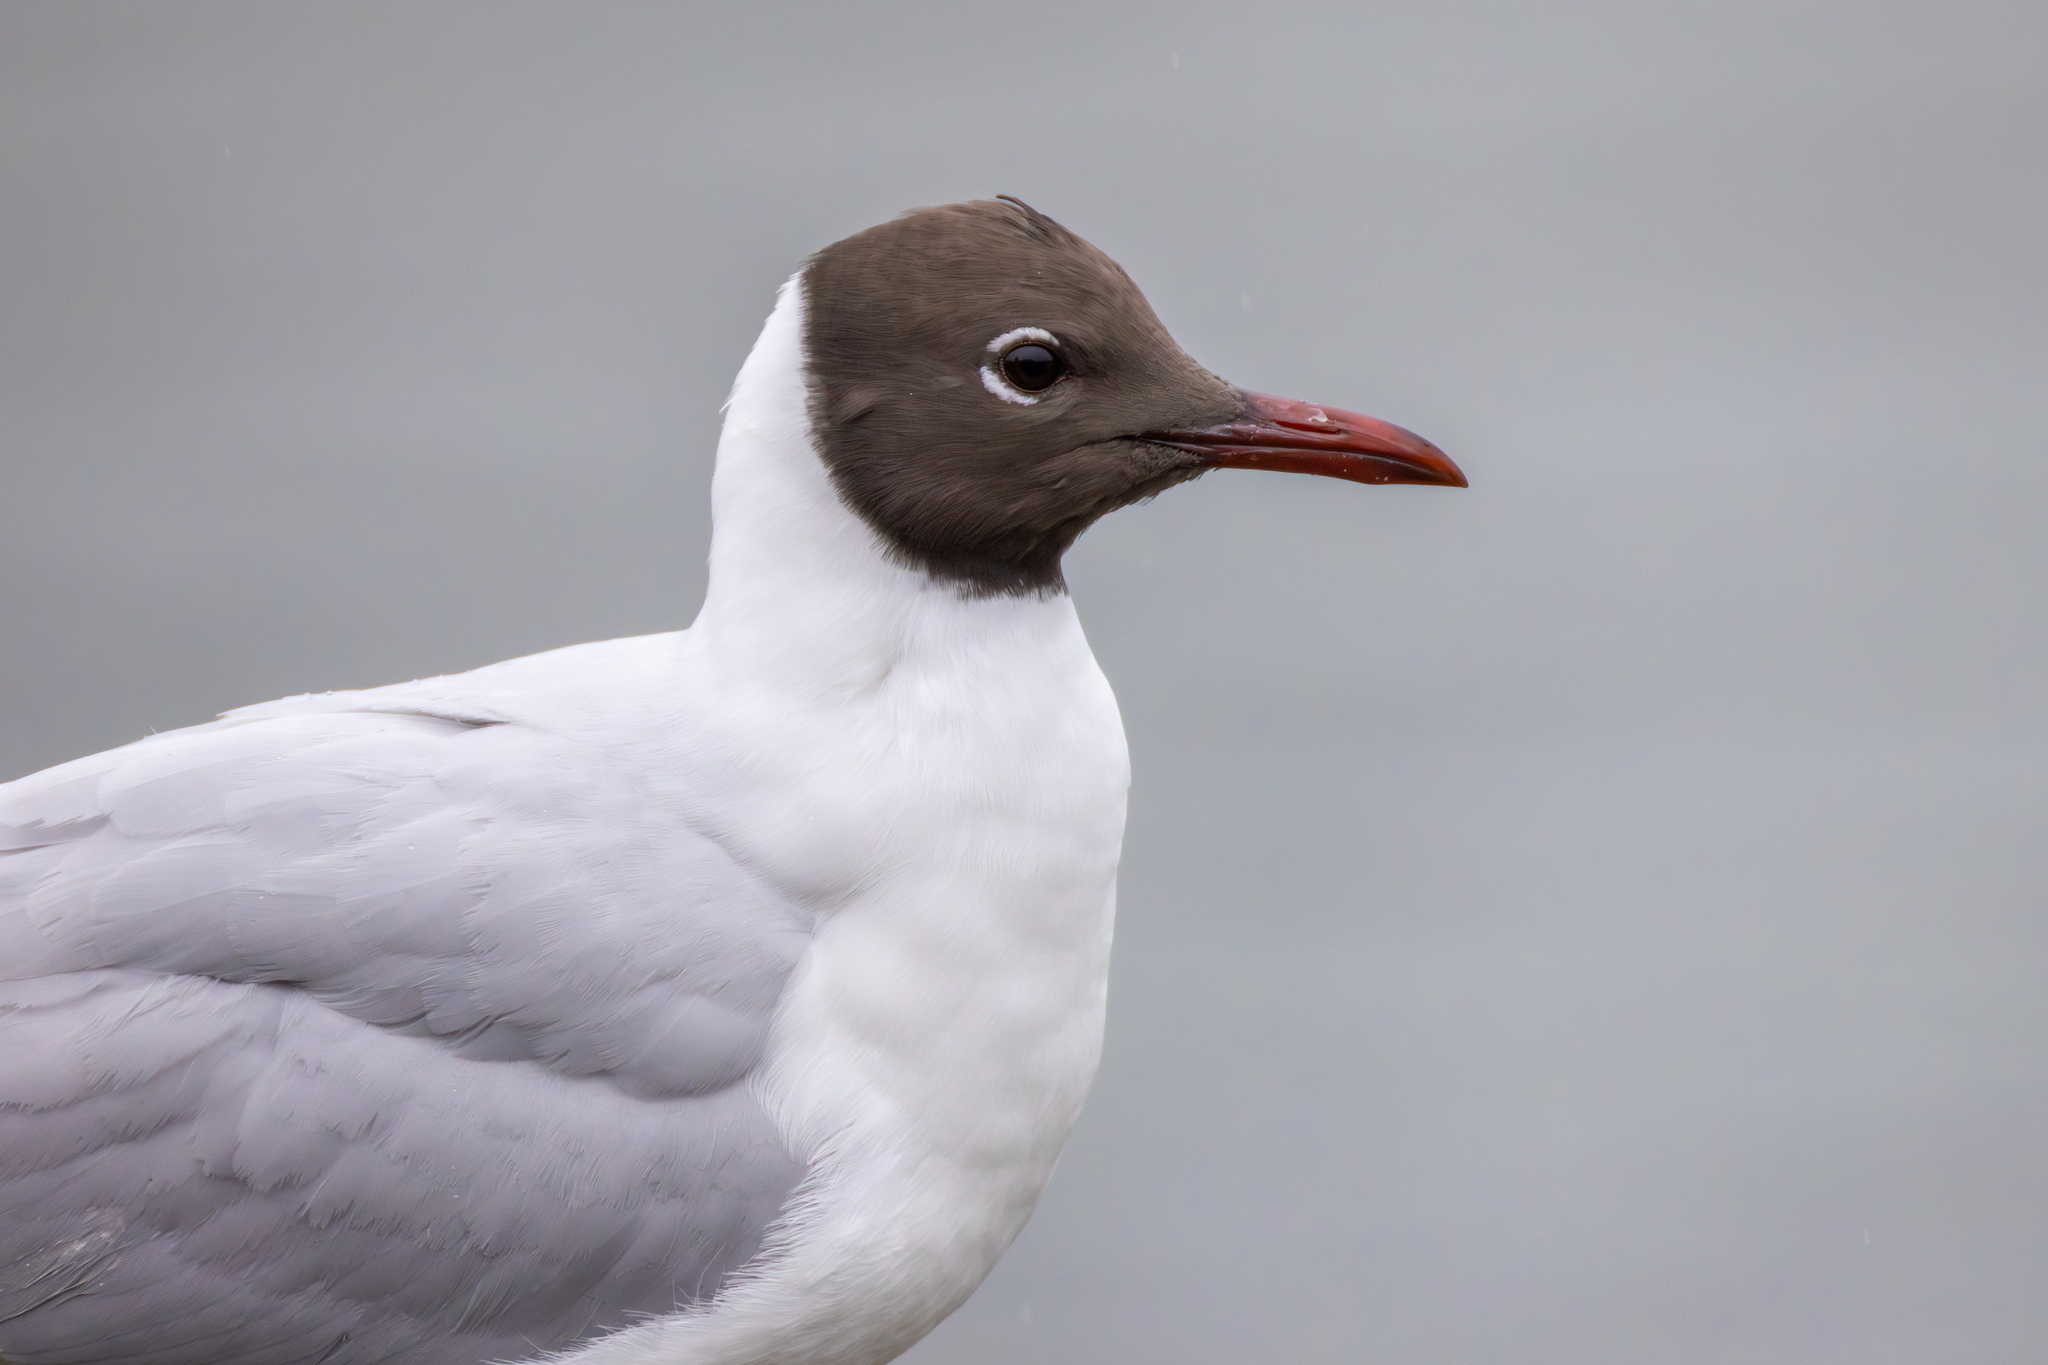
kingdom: Animalia
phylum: Chordata
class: Aves
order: Charadriiformes
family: Laridae
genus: Chroicocephalus
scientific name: Chroicocephalus ridibundus
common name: Black-headed gull
